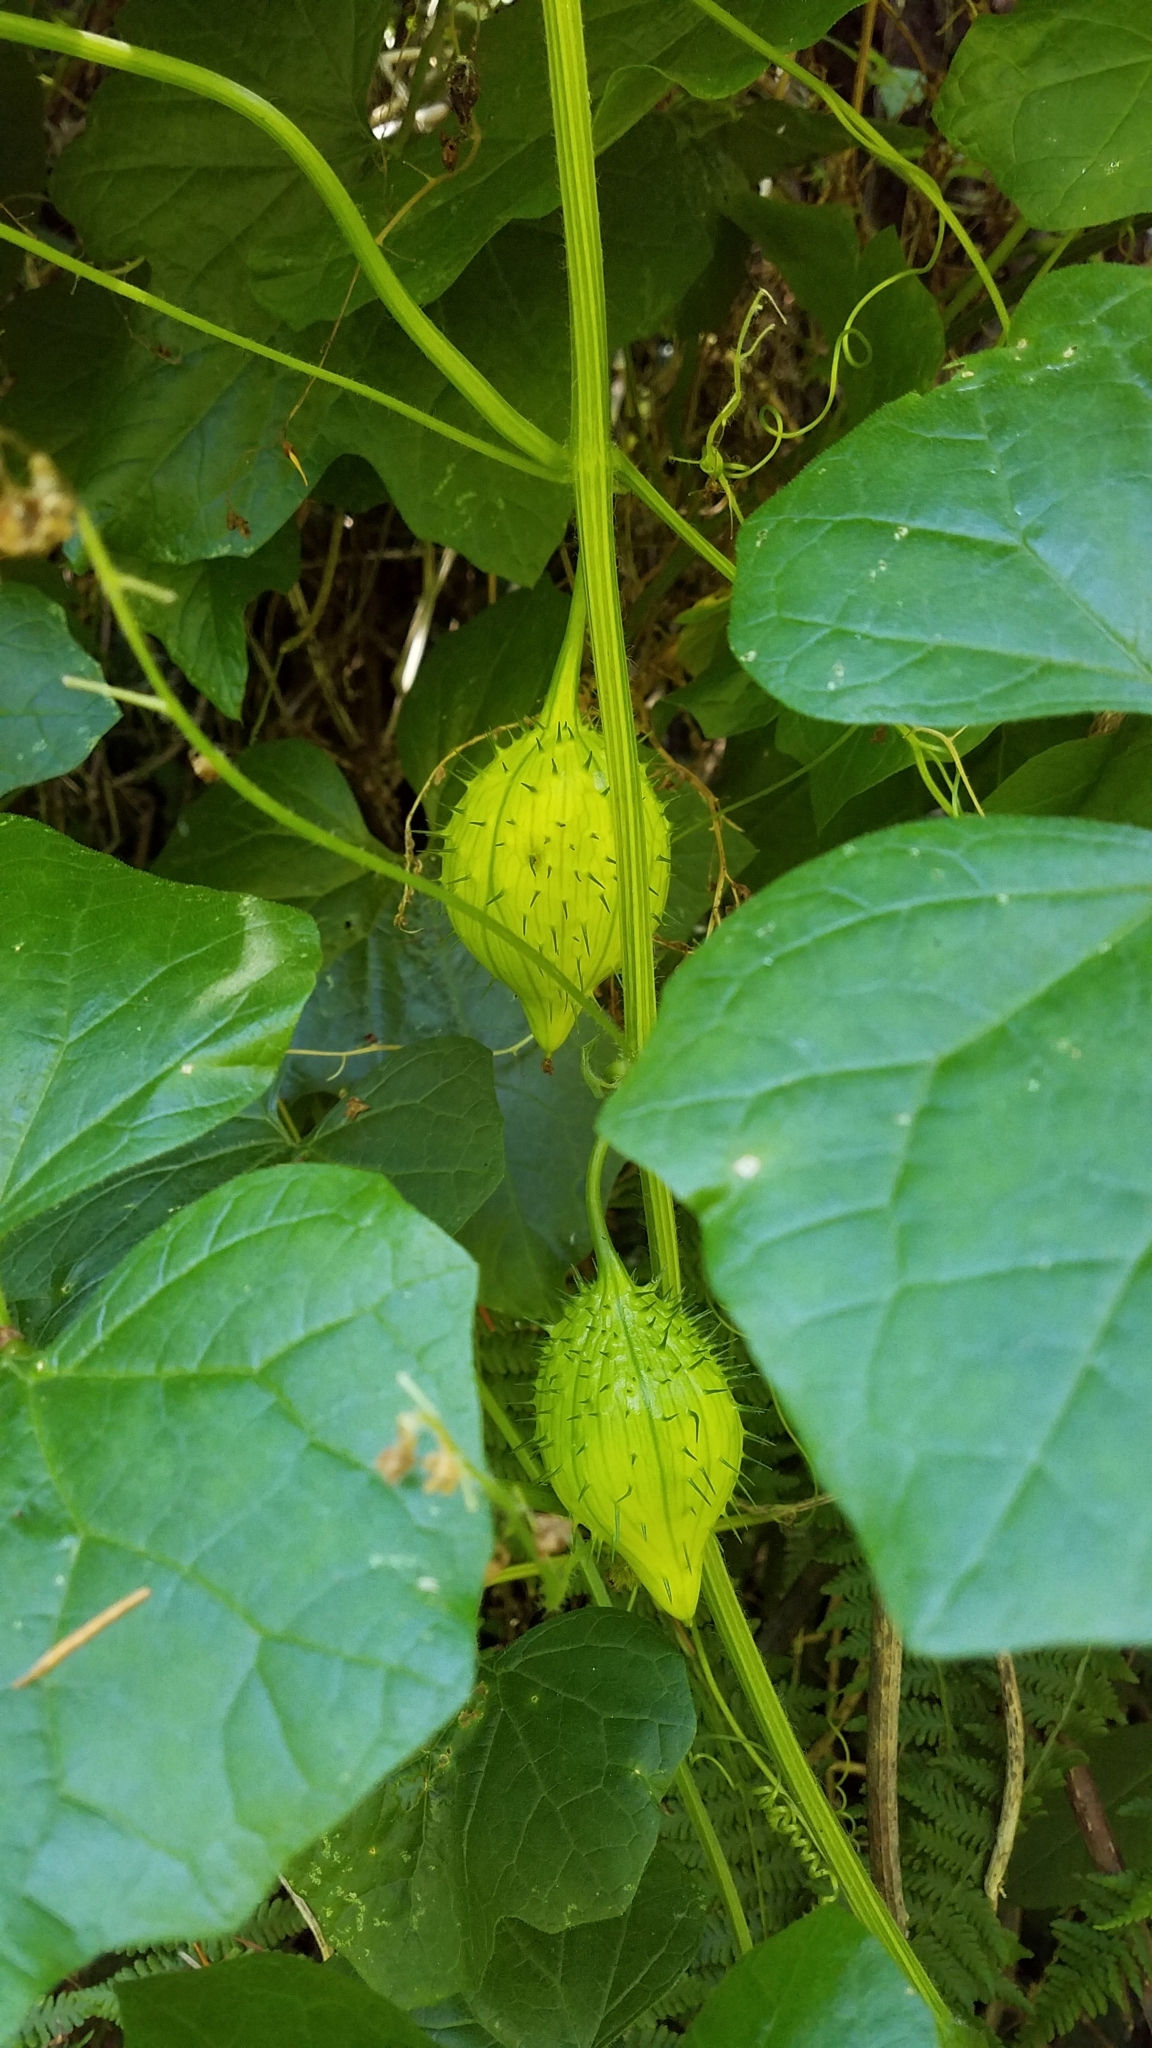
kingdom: Plantae
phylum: Tracheophyta
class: Magnoliopsida
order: Cucurbitales
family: Cucurbitaceae
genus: Marah
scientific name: Marah oregana
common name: Coastal manroot
